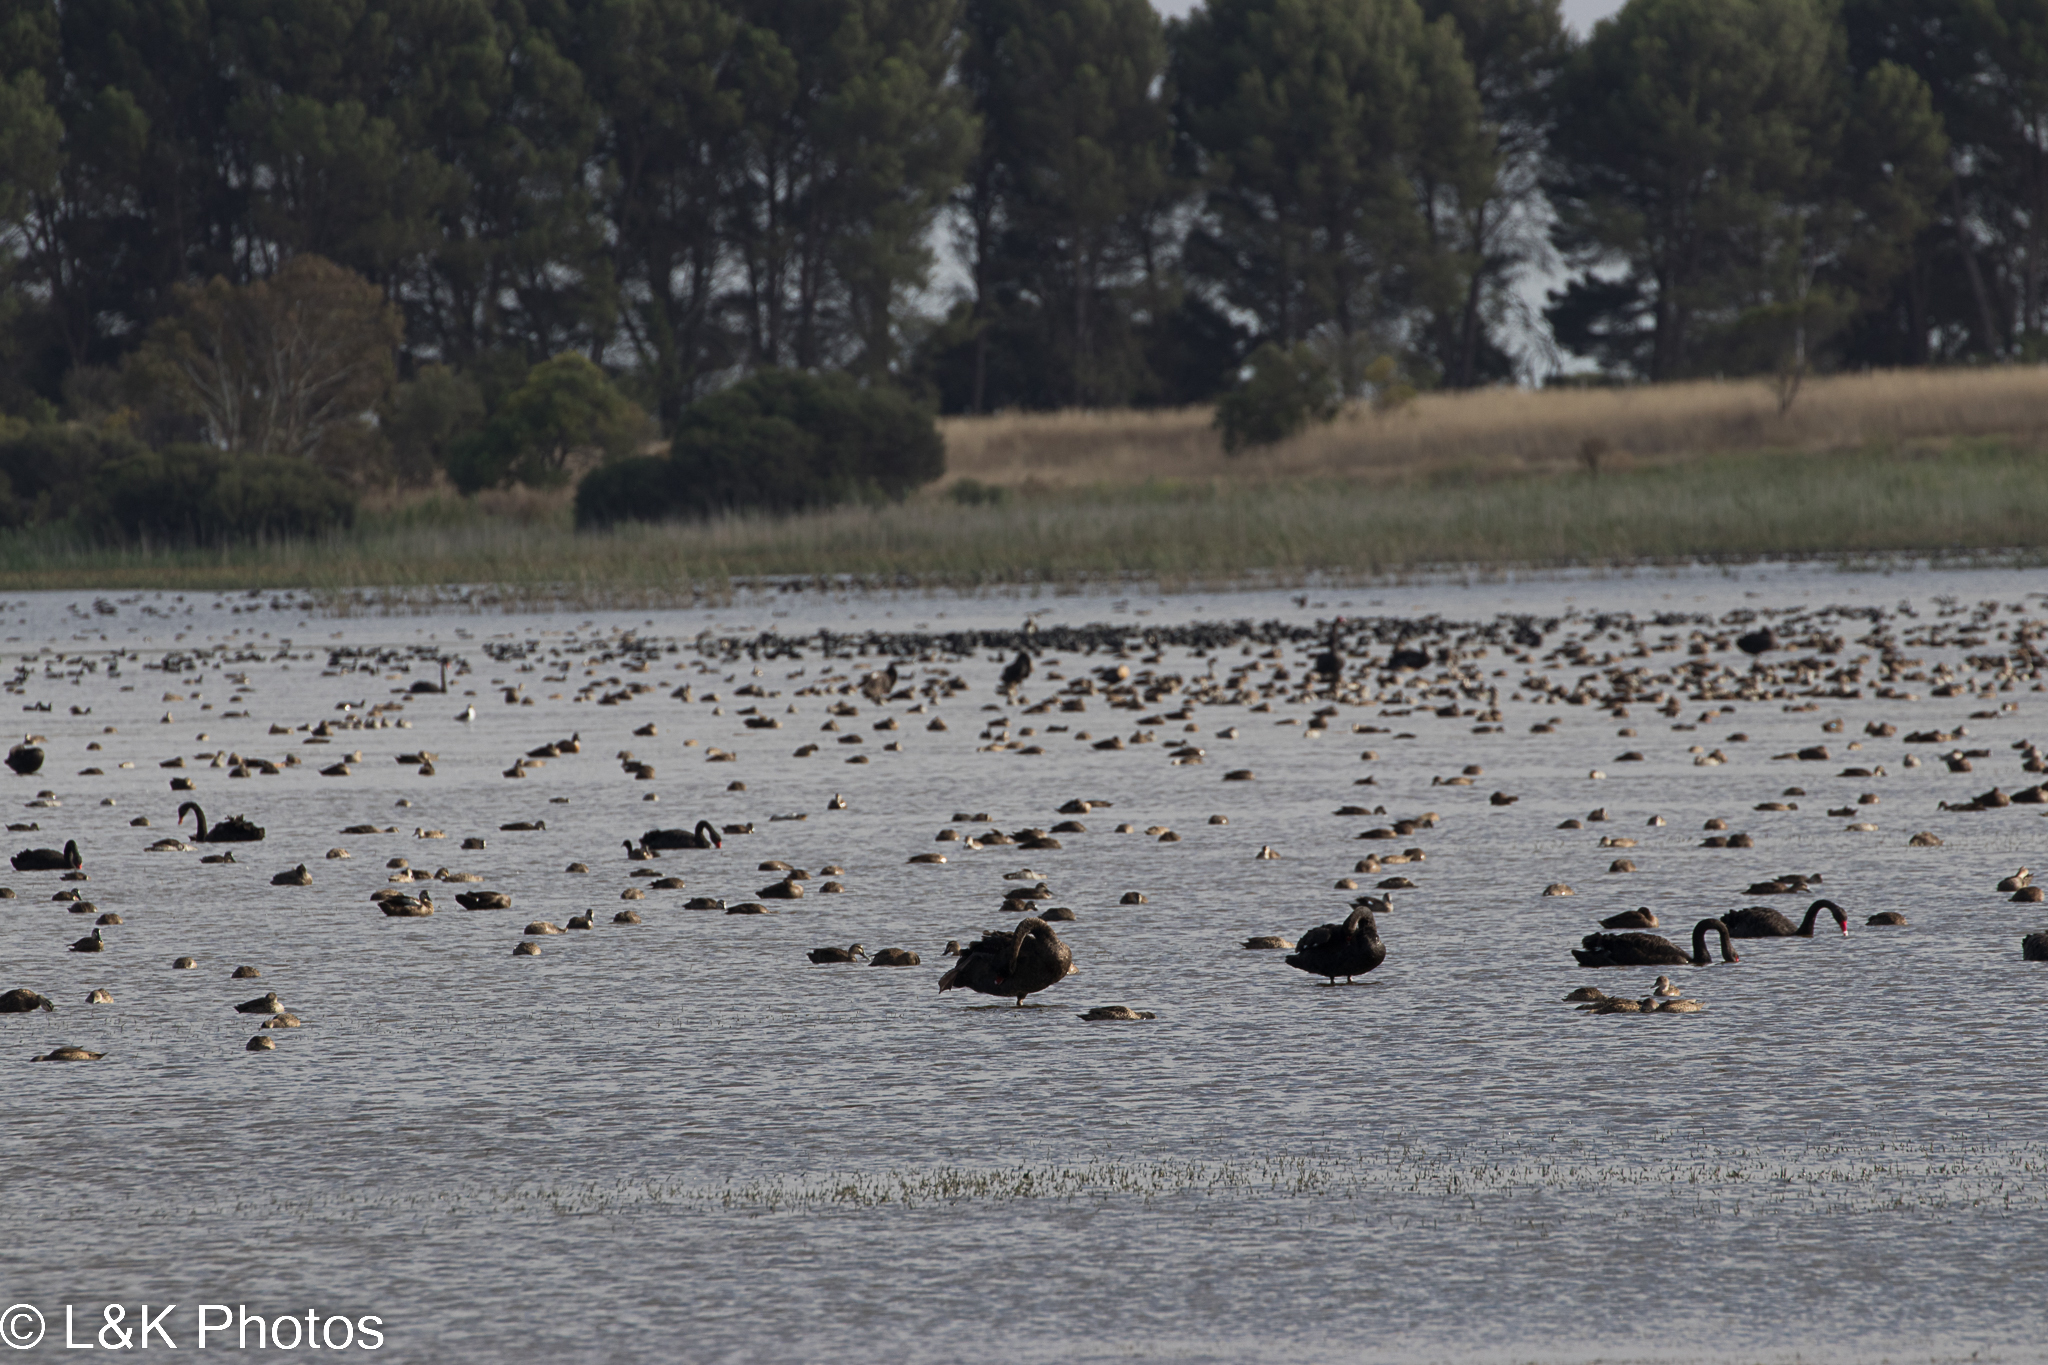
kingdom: Animalia
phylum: Chordata
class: Aves
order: Anseriformes
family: Anatidae
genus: Cygnus
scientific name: Cygnus atratus
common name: Black swan
